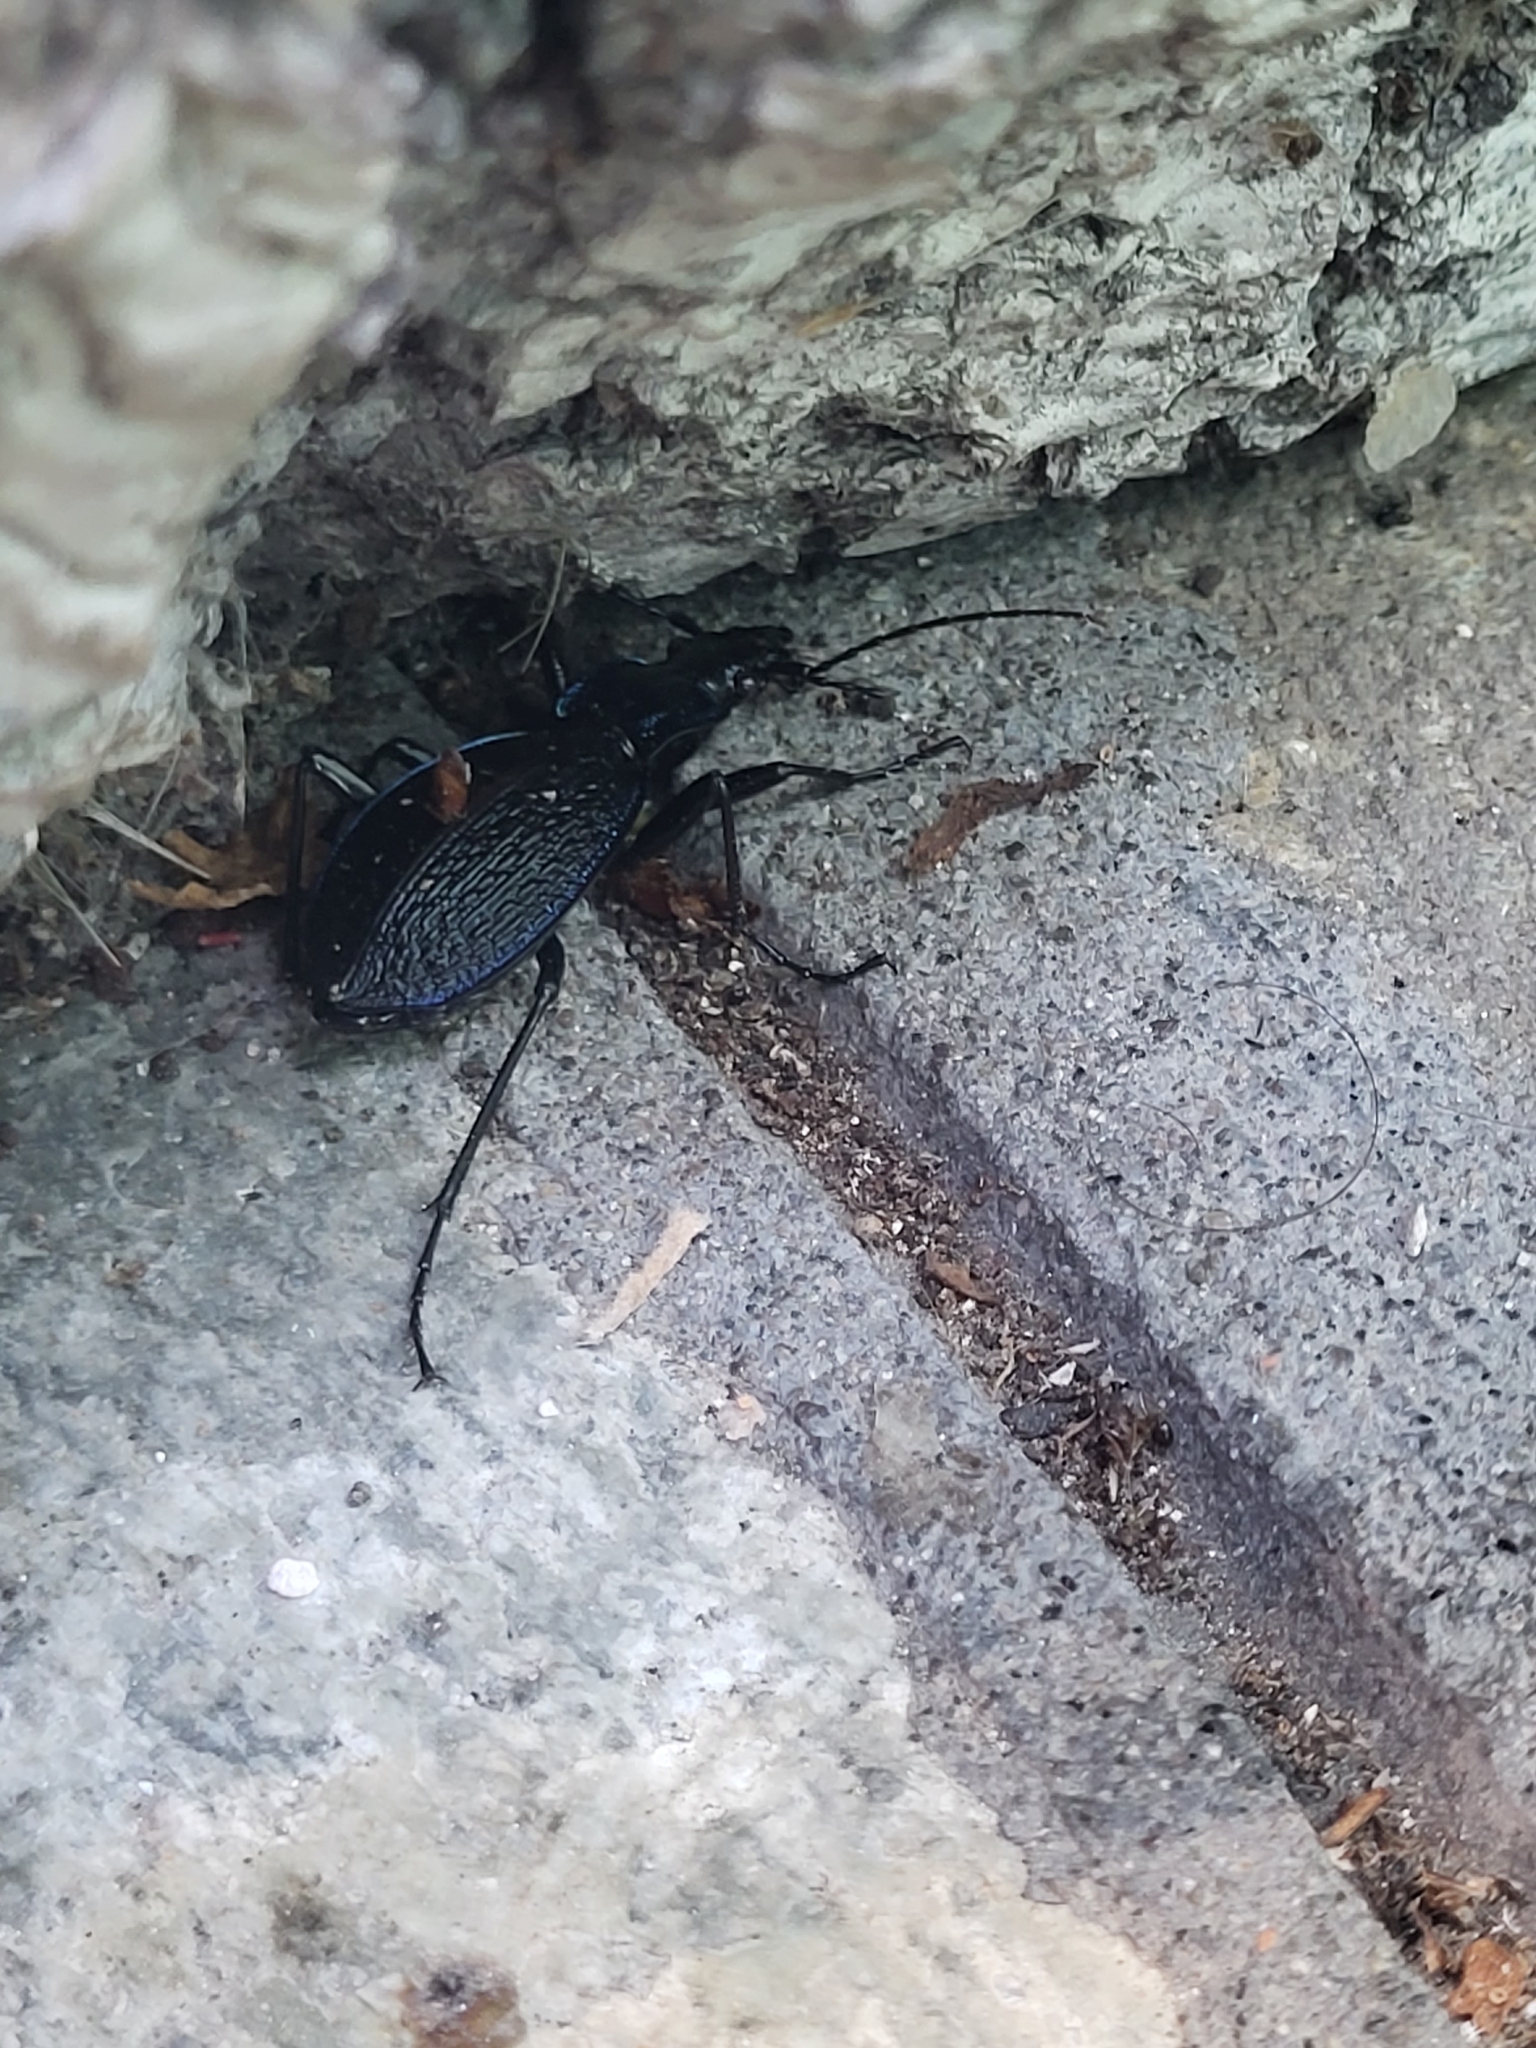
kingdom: Animalia
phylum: Arthropoda
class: Insecta
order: Coleoptera
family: Carabidae
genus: Carabus
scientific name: Carabus intricatus
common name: Blue ground beetle
